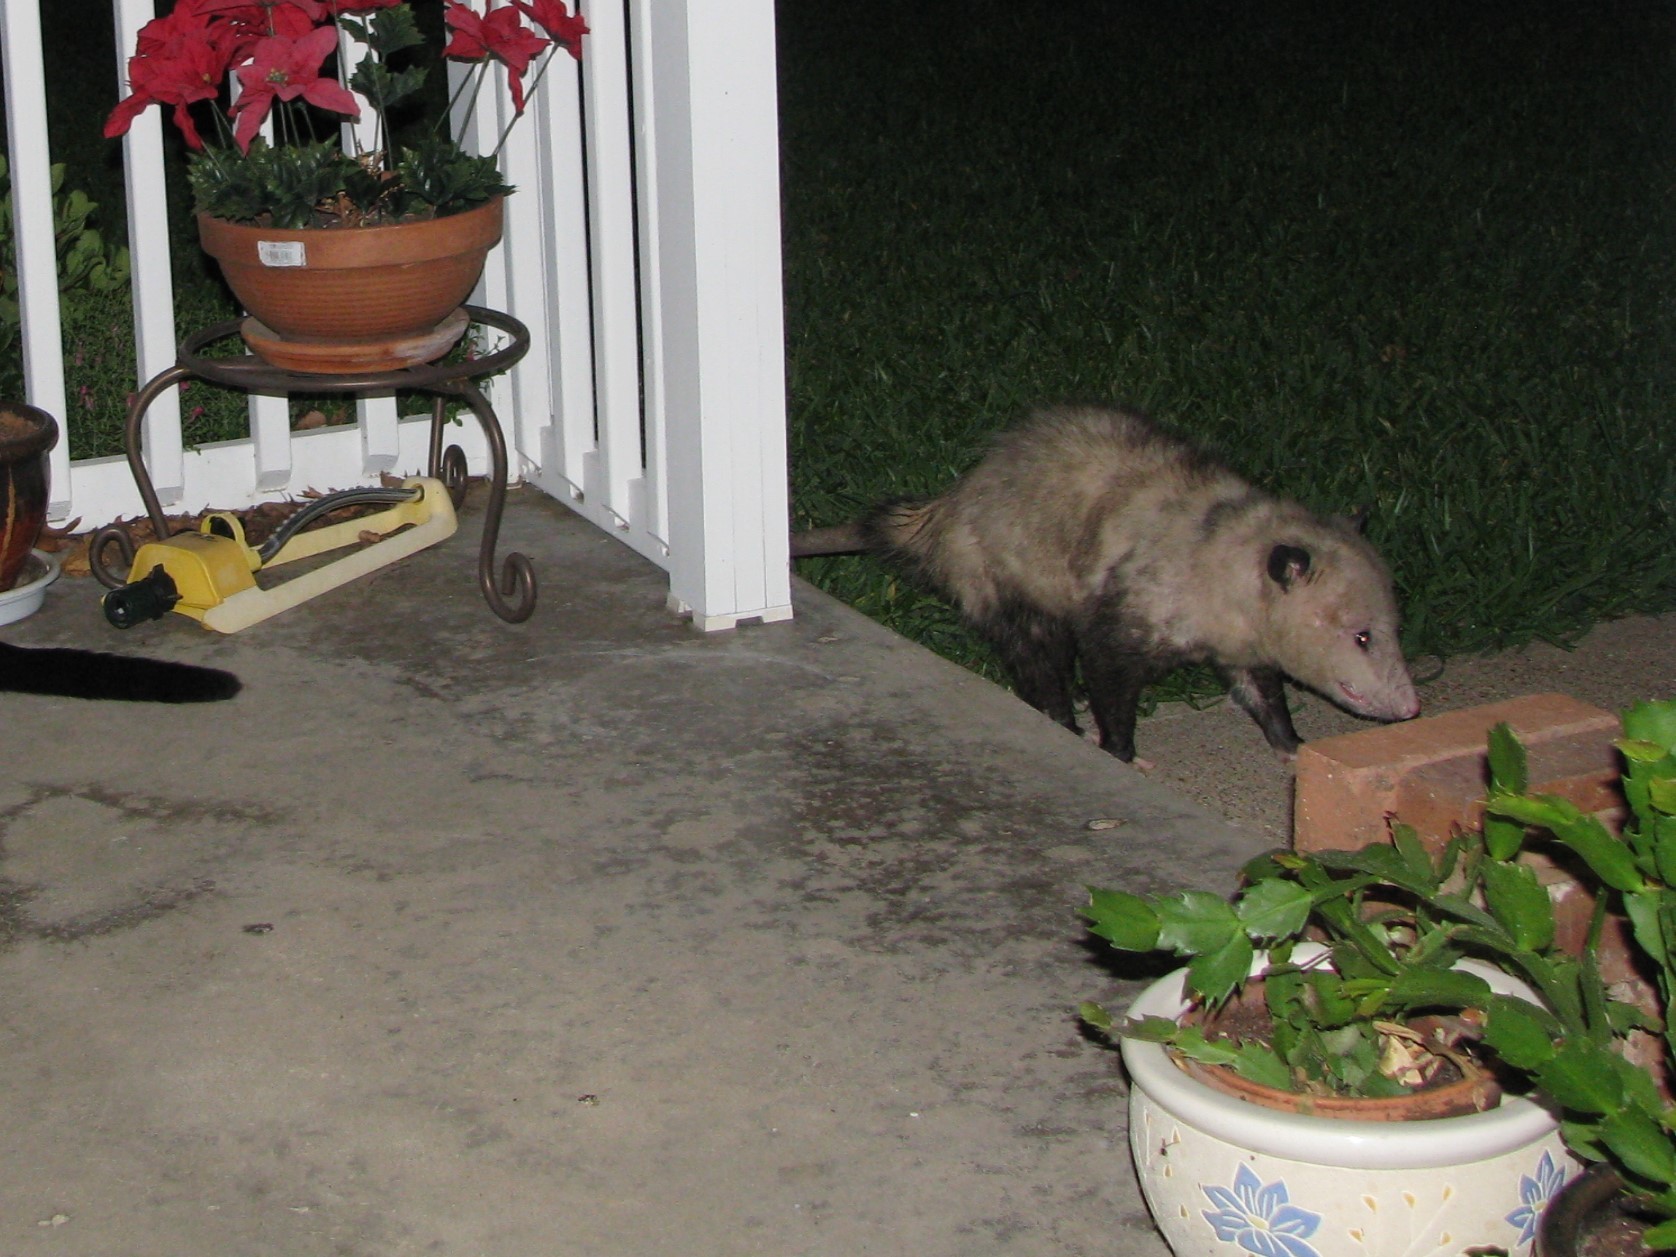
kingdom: Animalia
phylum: Chordata
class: Mammalia
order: Didelphimorphia
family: Didelphidae
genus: Didelphis
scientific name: Didelphis virginiana
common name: Virginia opossum
